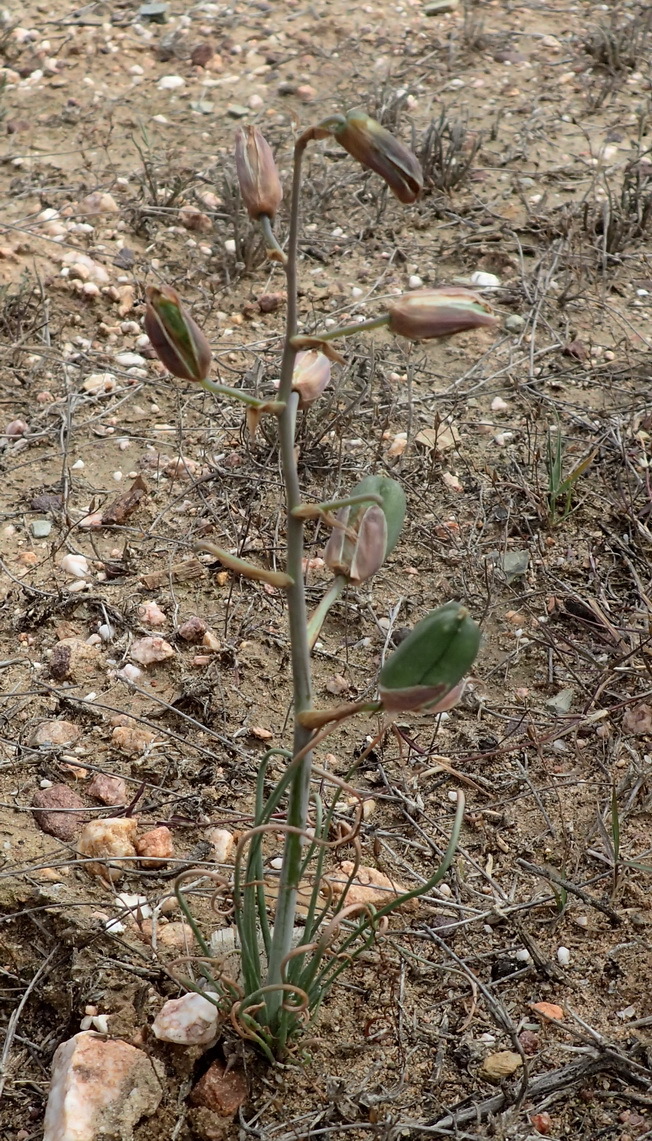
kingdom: Plantae
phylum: Tracheophyta
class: Liliopsida
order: Asparagales
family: Asparagaceae
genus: Albuca
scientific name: Albuca viscosa
